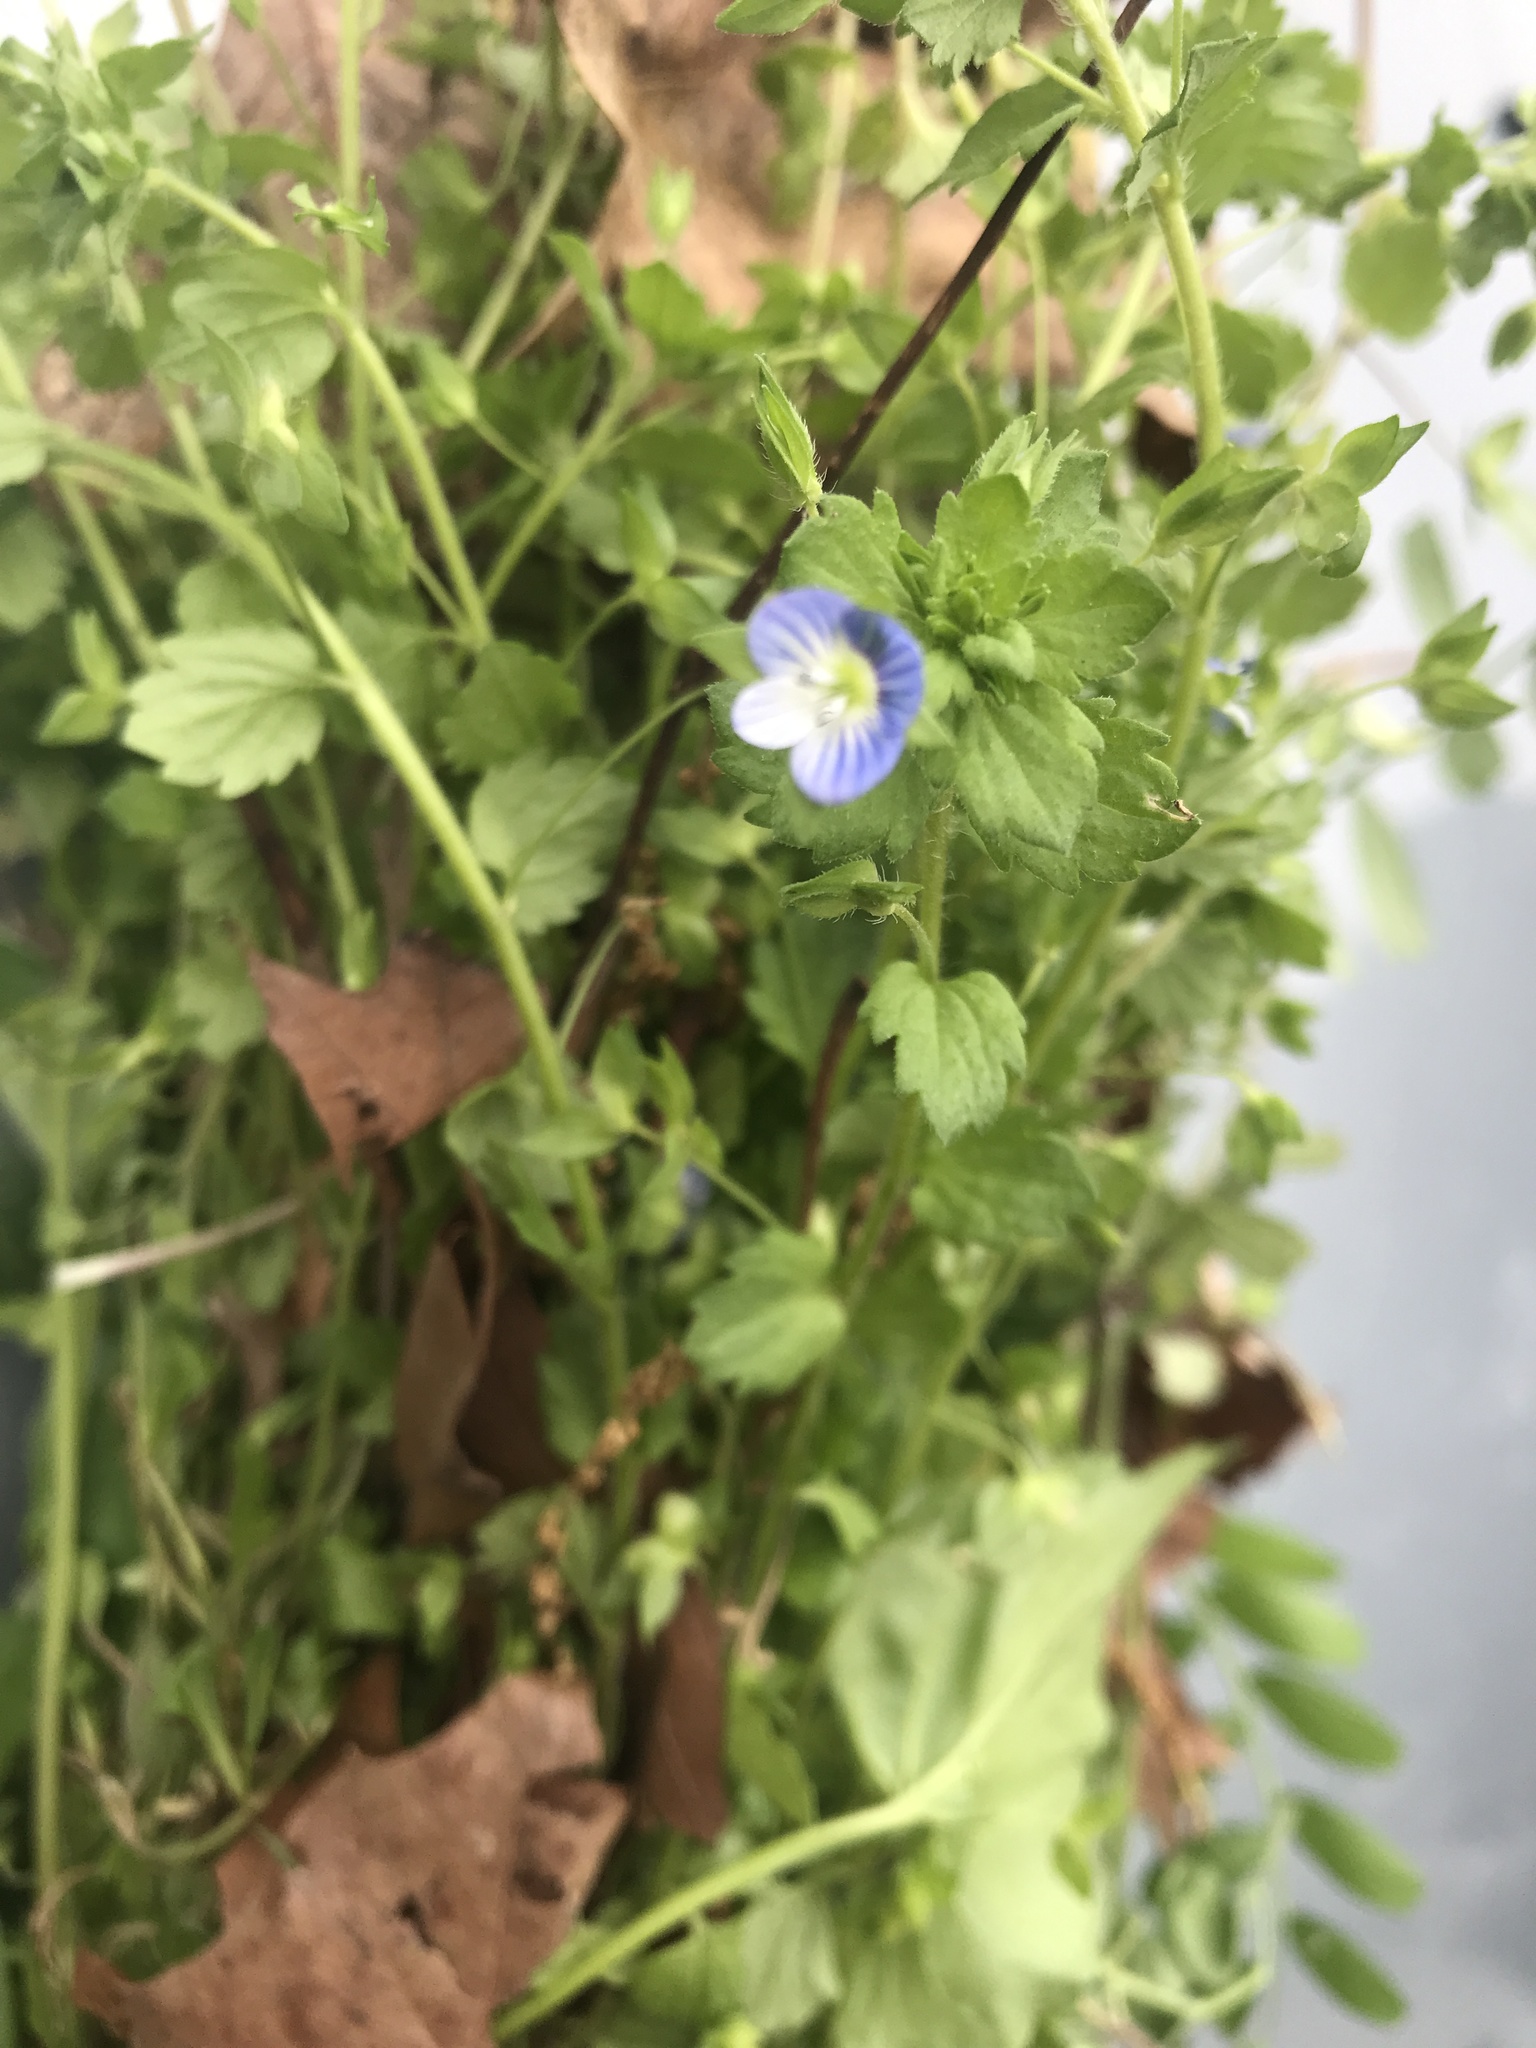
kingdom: Plantae
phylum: Tracheophyta
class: Magnoliopsida
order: Lamiales
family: Plantaginaceae
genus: Veronica
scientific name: Veronica persica
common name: Common field-speedwell
